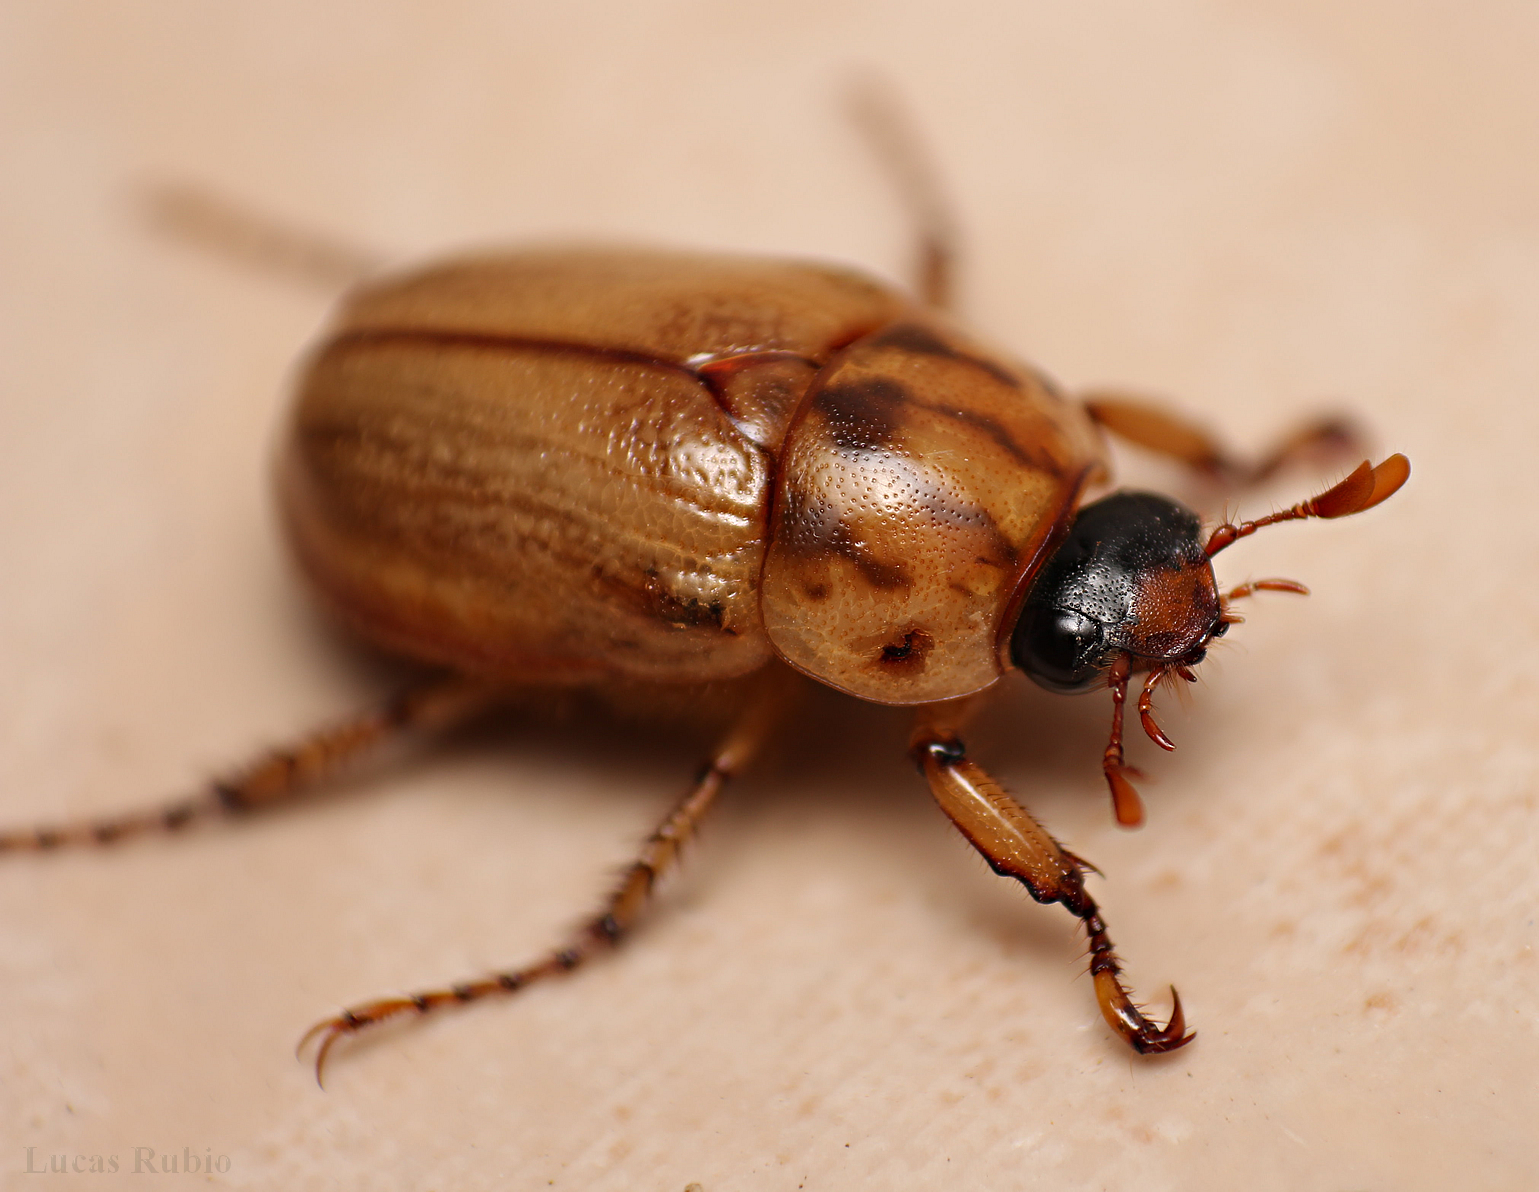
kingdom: Animalia
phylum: Arthropoda
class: Insecta
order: Coleoptera
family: Scarabaeidae
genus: Cyclocephala
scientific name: Cyclocephala signaticollis
